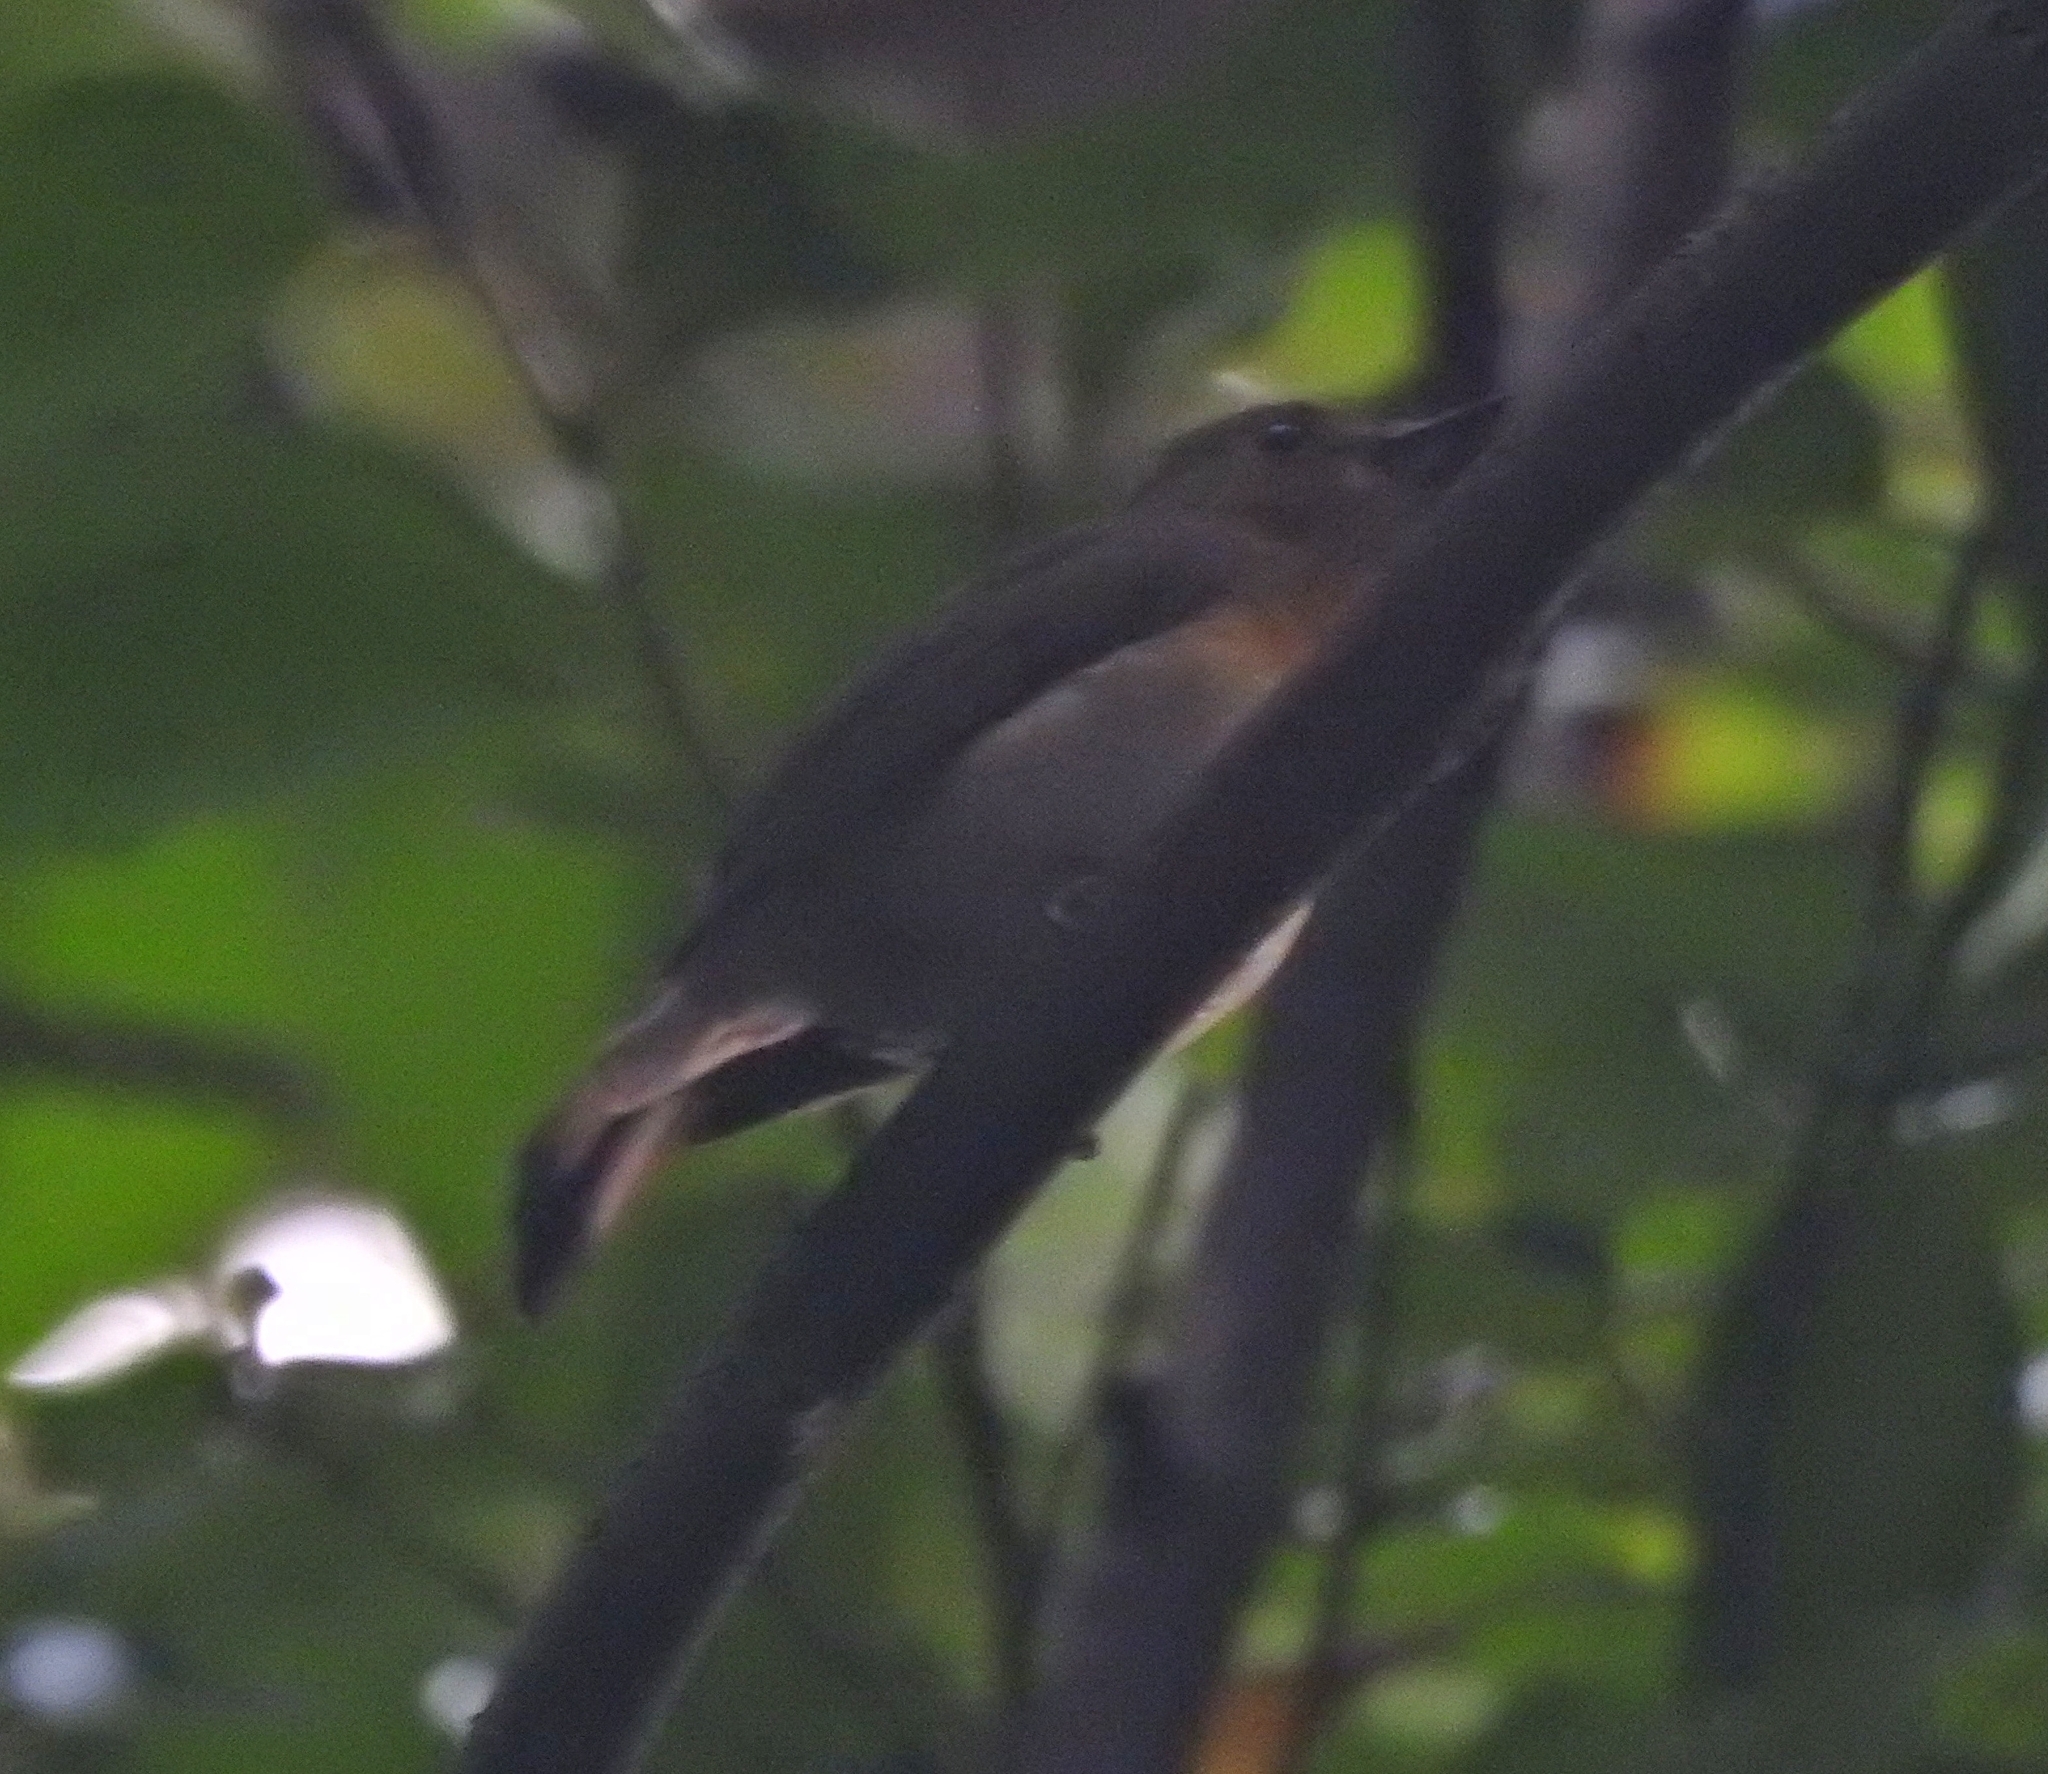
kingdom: Animalia
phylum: Chordata
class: Aves
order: Passeriformes
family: Muscicapidae
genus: Cyornis
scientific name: Cyornis rubeculoides
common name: Blue-throated blue flycatcher
